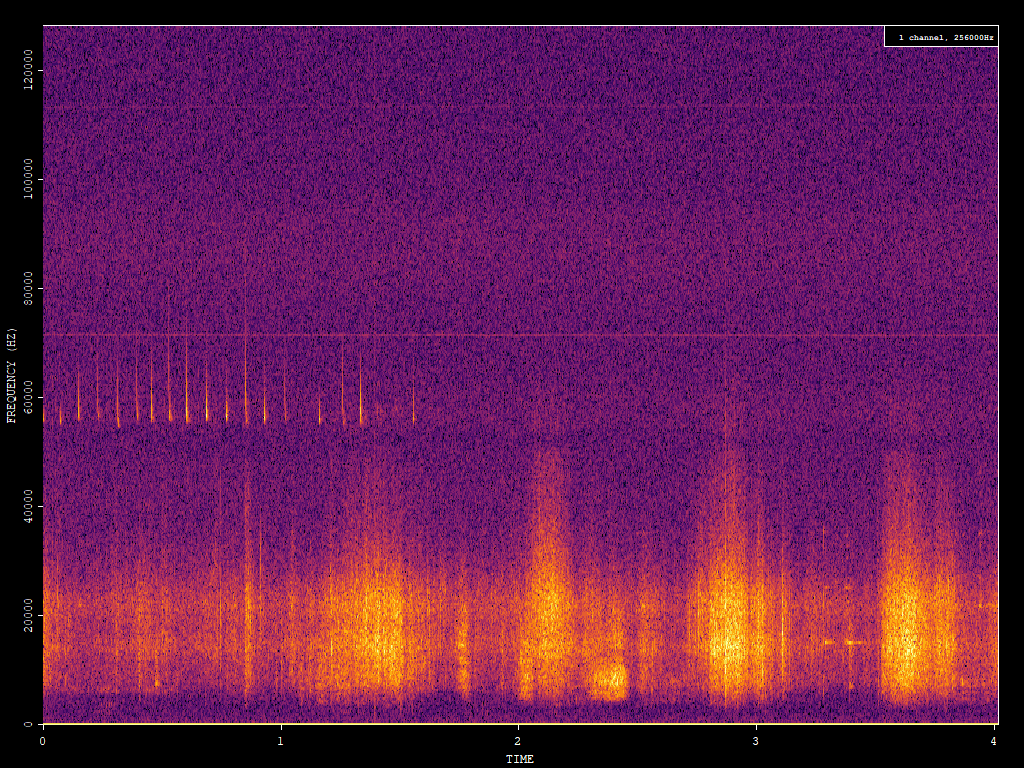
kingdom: Animalia
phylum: Chordata
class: Mammalia
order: Chiroptera
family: Vespertilionidae
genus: Pipistrellus
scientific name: Pipistrellus pygmaeus
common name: Soprano pipistrelle
